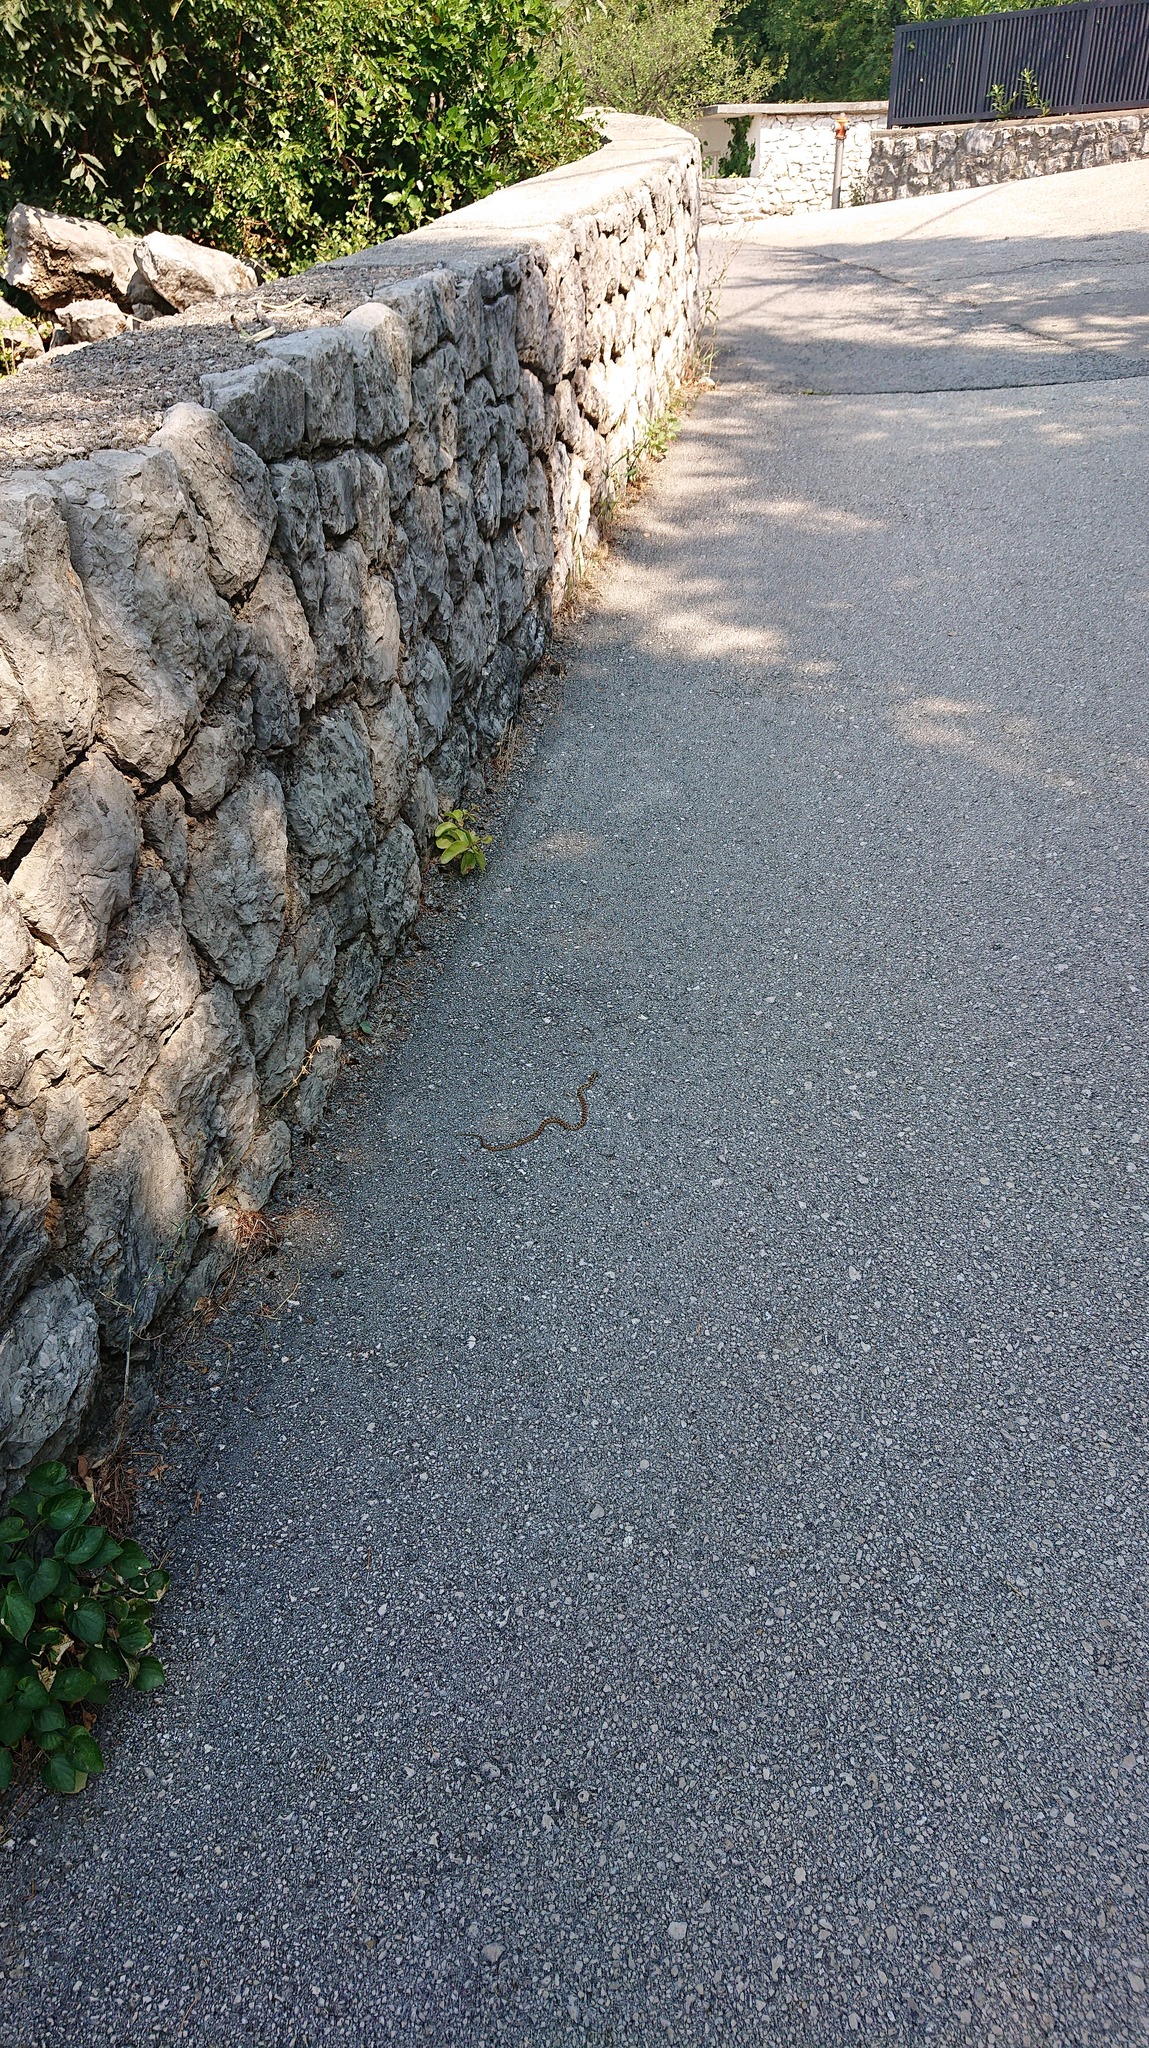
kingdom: Animalia
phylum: Chordata
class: Squamata
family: Colubridae
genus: Zamenis
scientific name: Zamenis situla
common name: European ratsnake
